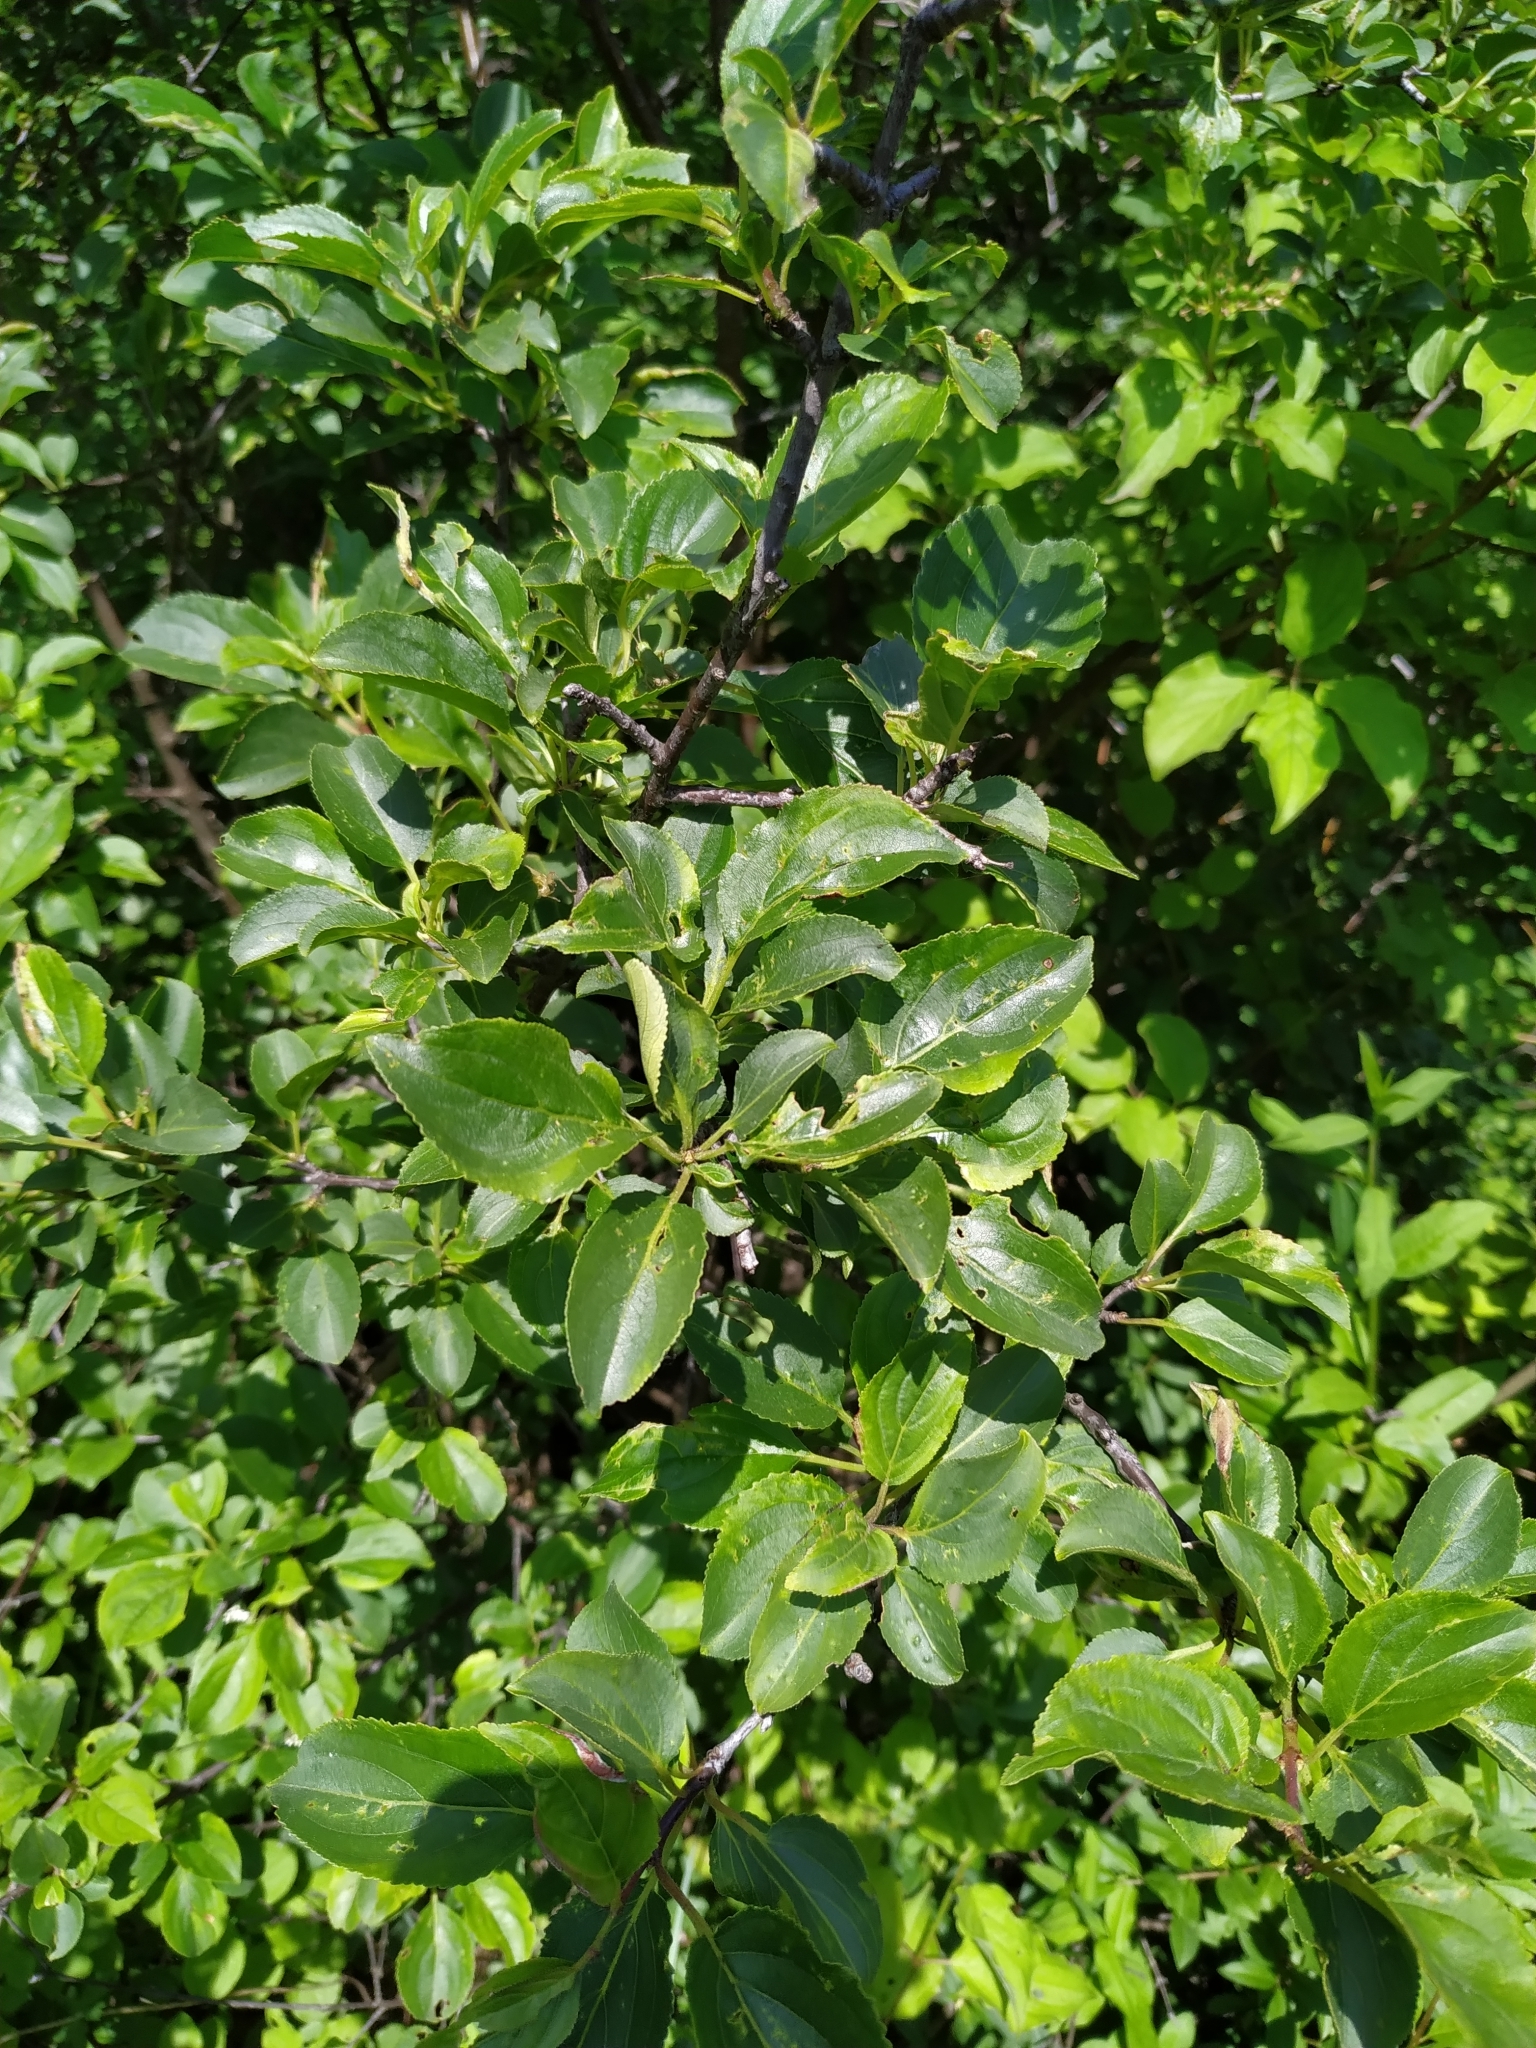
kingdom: Plantae
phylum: Tracheophyta
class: Magnoliopsida
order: Rosales
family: Rhamnaceae
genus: Rhamnus
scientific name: Rhamnus cathartica
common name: Common buckthorn
